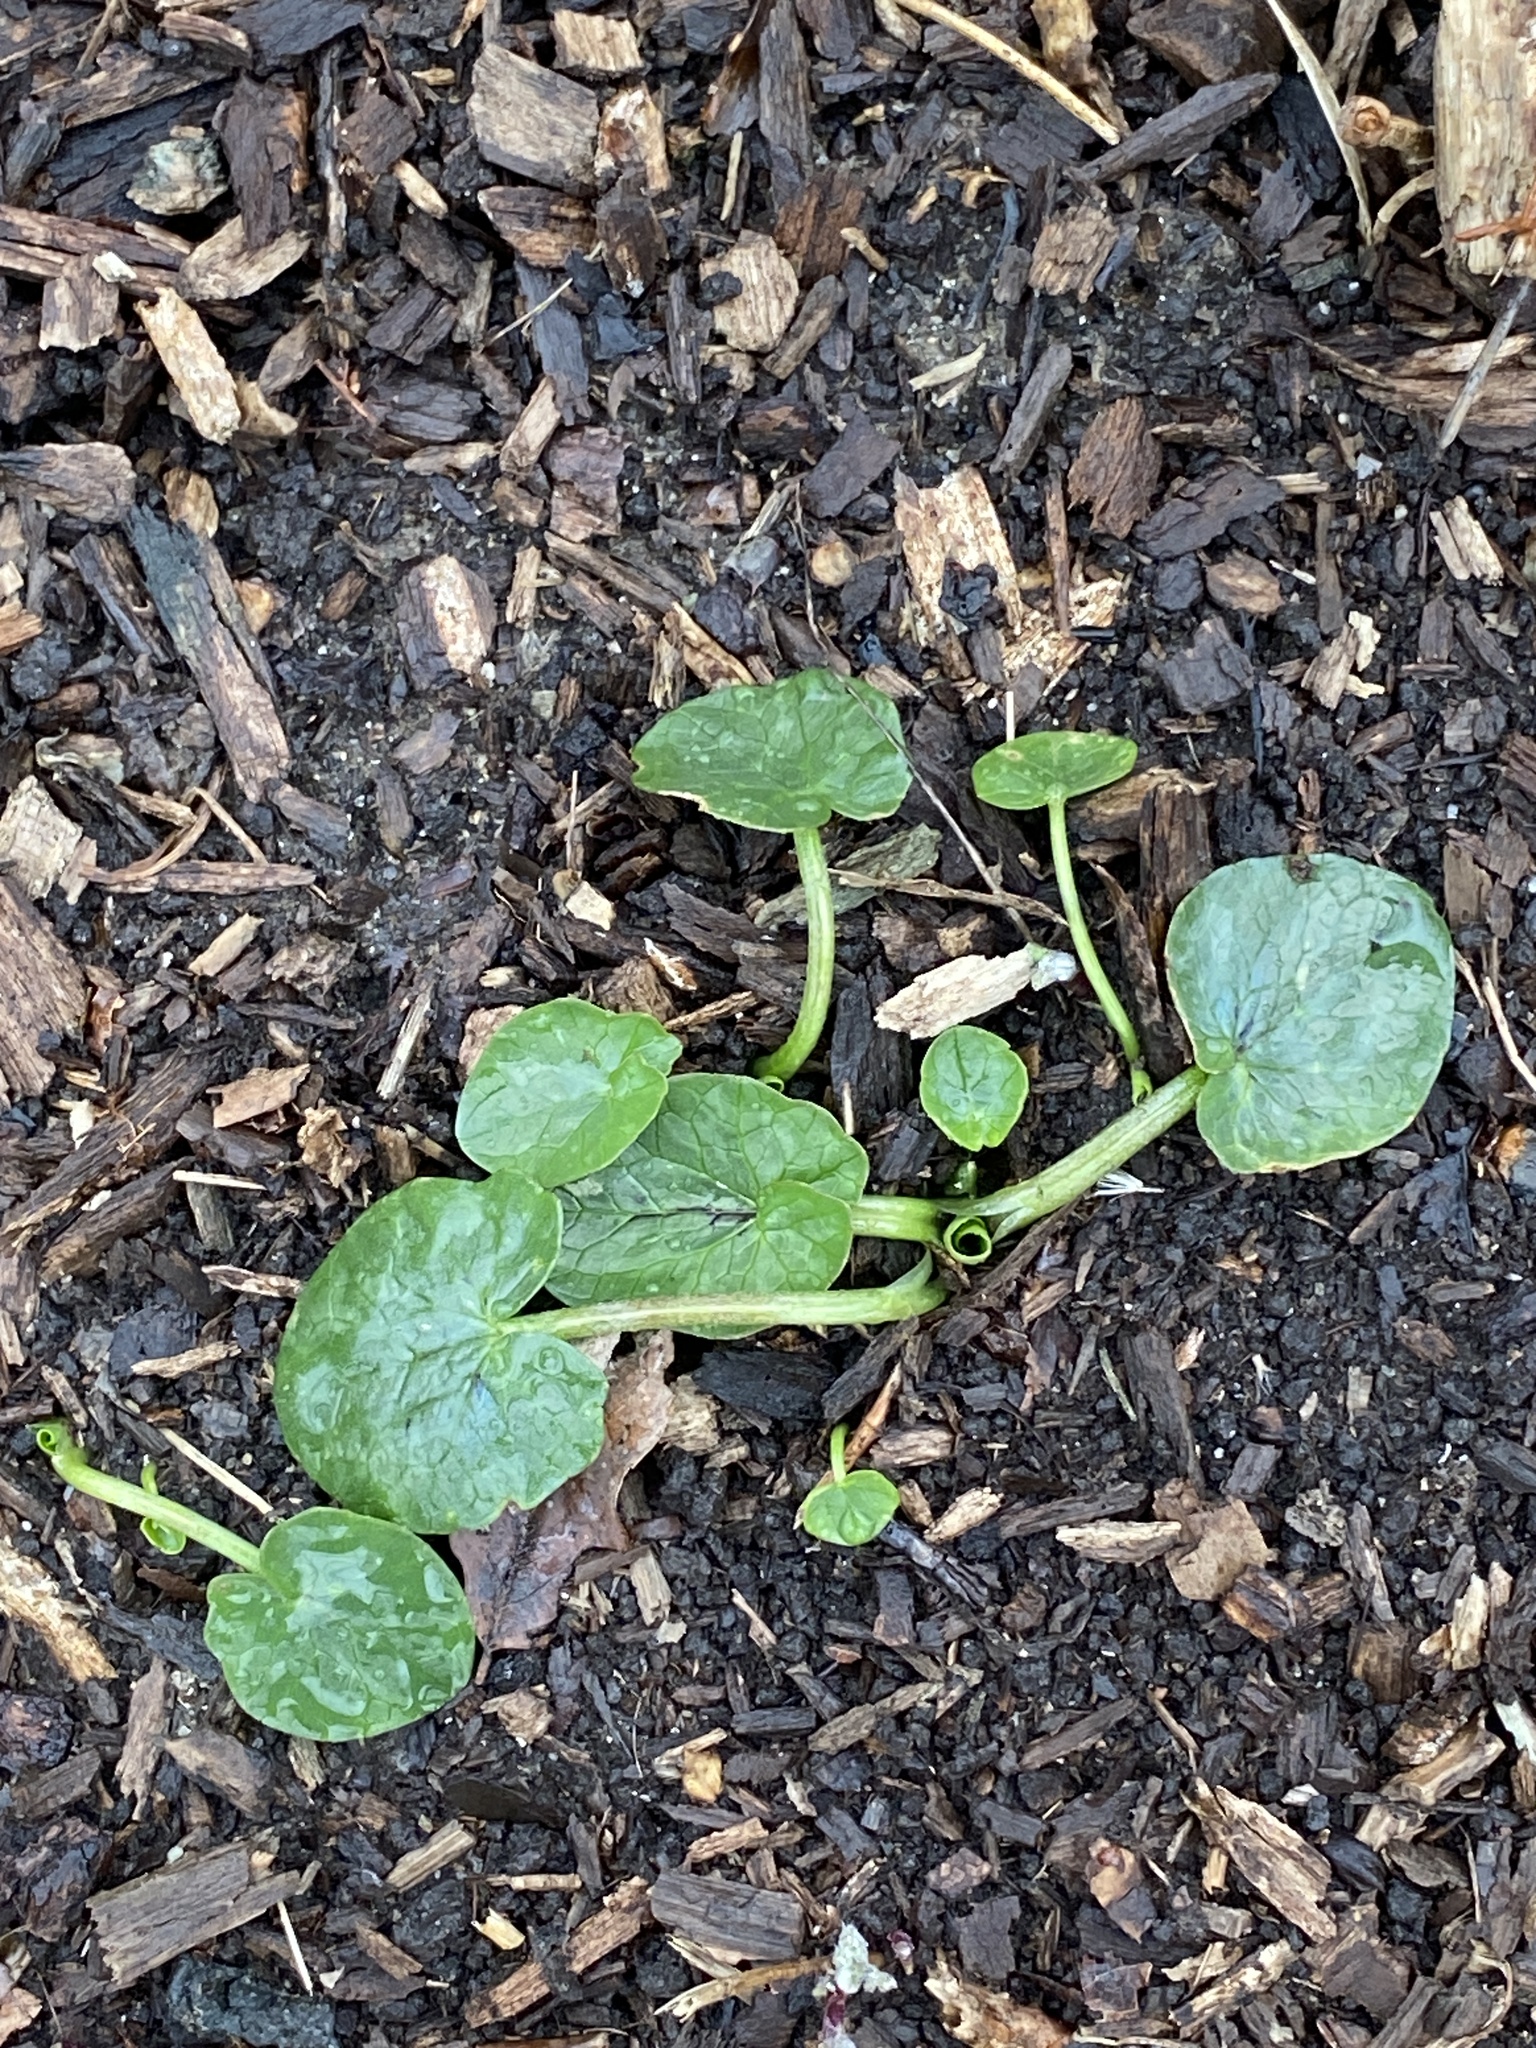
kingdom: Plantae
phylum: Tracheophyta
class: Magnoliopsida
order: Ranunculales
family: Ranunculaceae
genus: Ficaria
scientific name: Ficaria verna
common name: Lesser celandine
